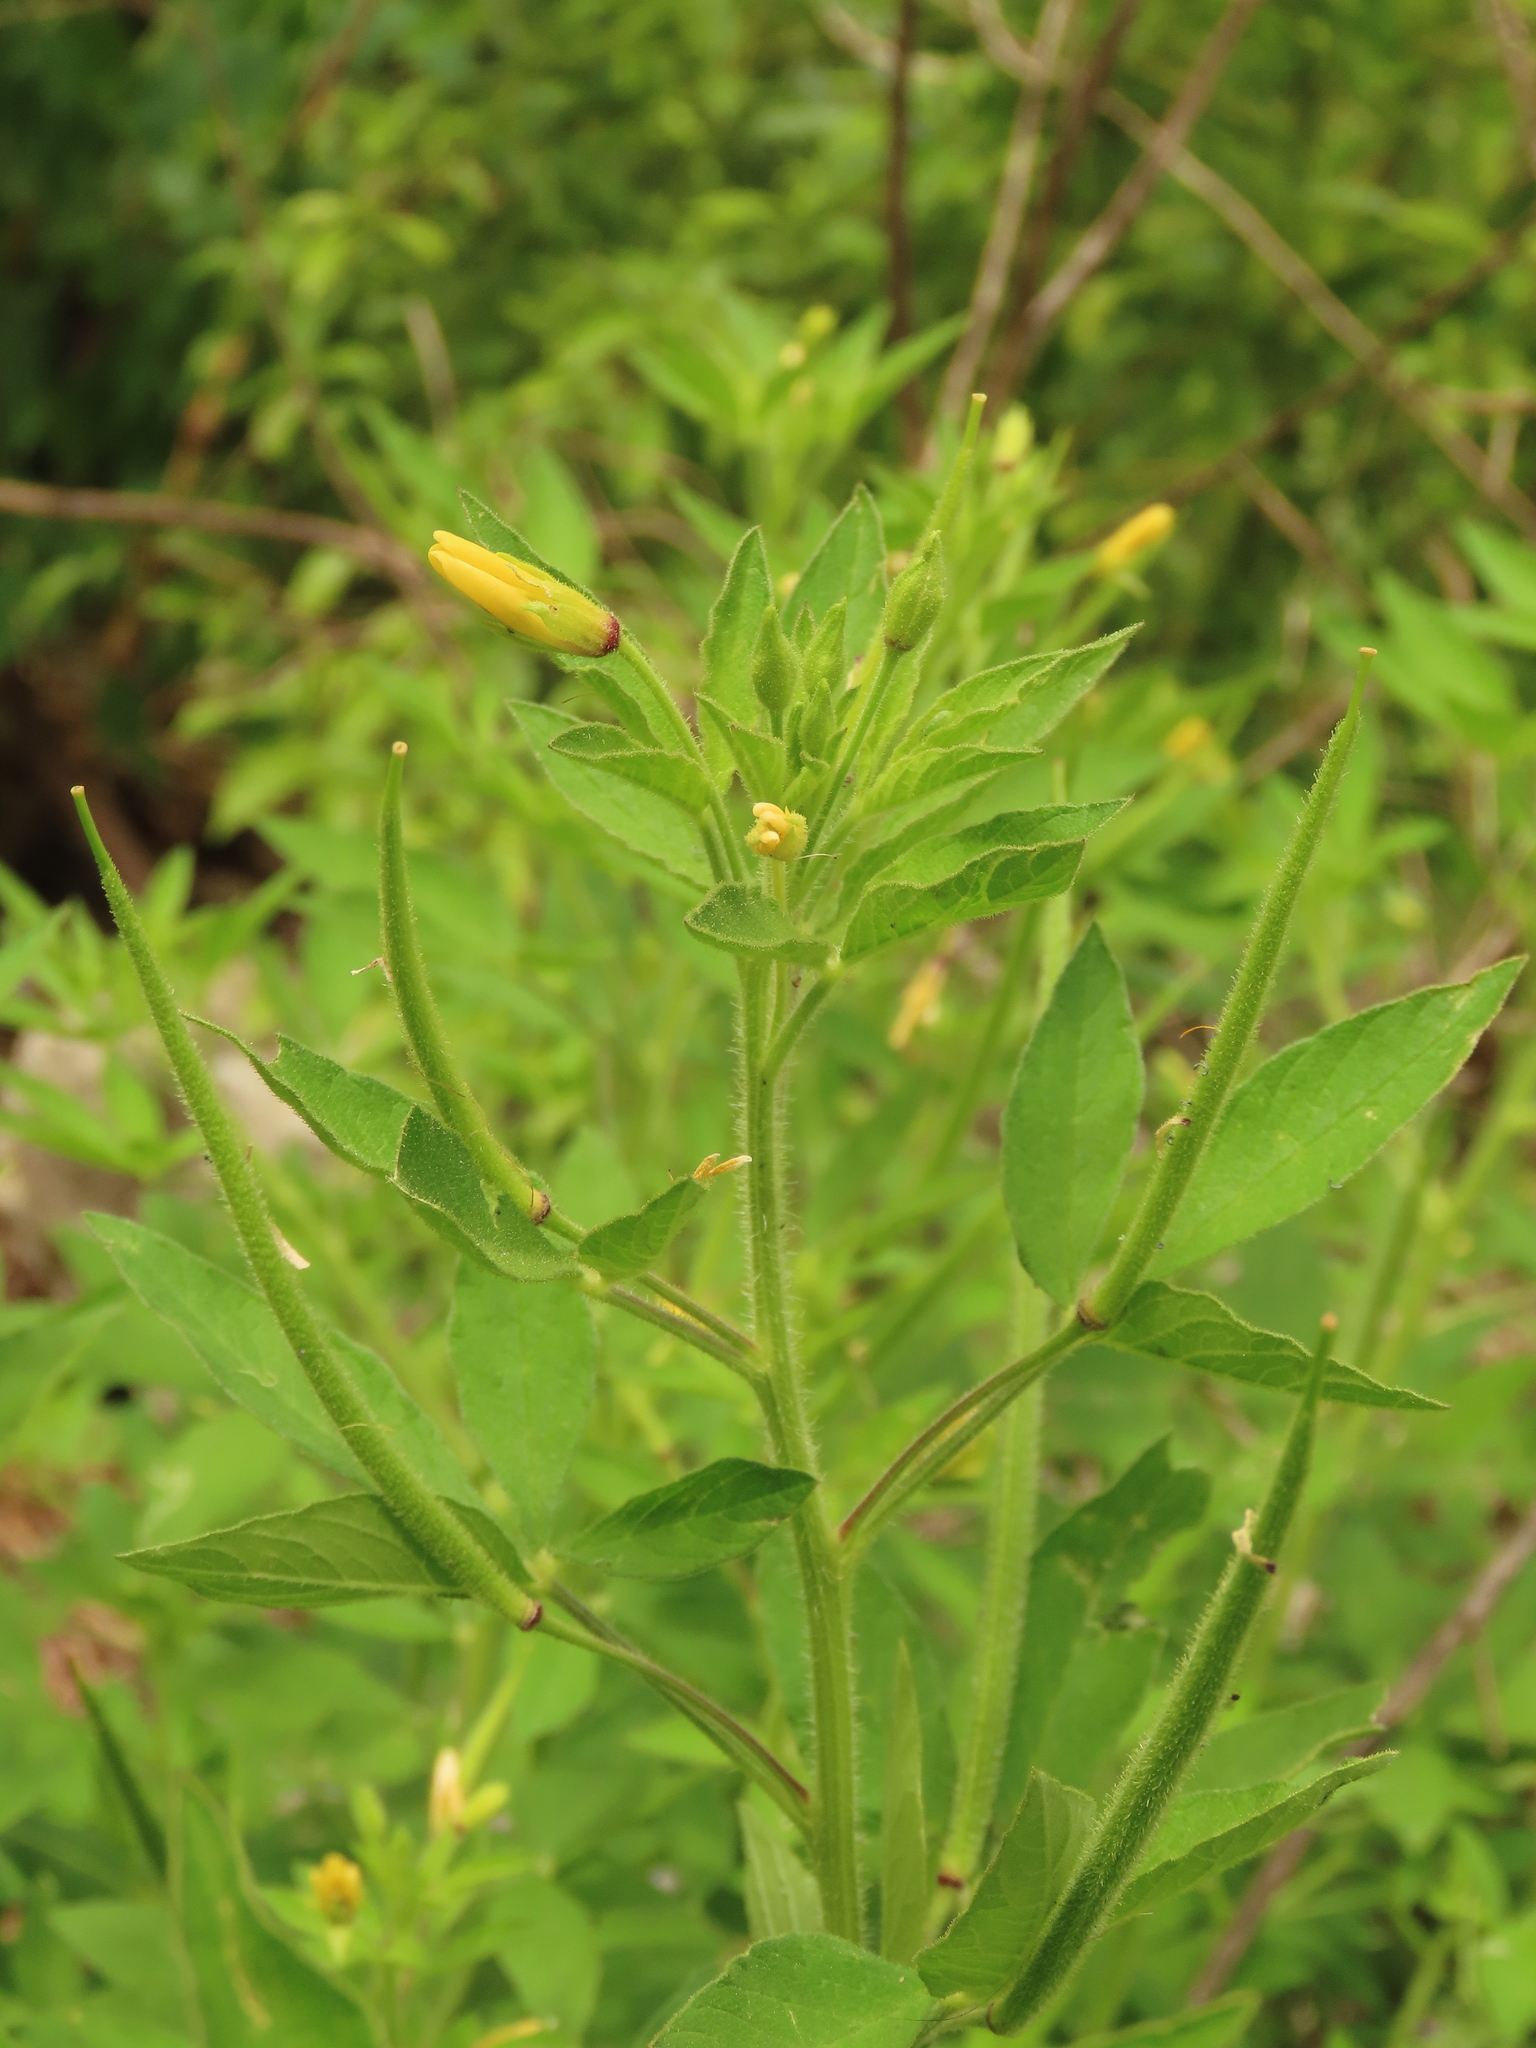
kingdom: Plantae
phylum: Tracheophyta
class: Magnoliopsida
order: Brassicales
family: Cleomaceae
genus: Arivela
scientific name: Arivela viscosa
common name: Asian spiderflower
